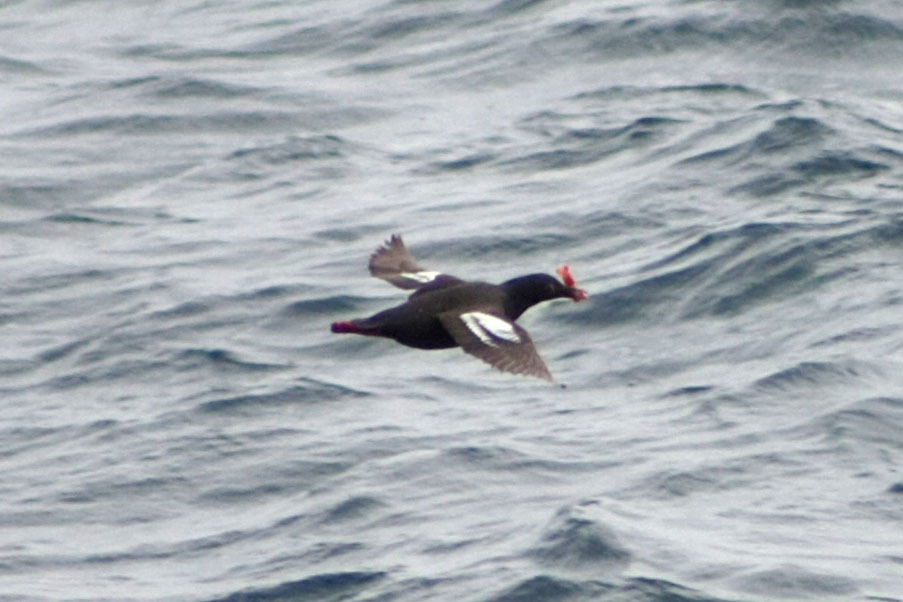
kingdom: Animalia
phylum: Chordata
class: Aves
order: Charadriiformes
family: Alcidae
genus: Cepphus
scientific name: Cepphus columba
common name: Pigeon guillemot
